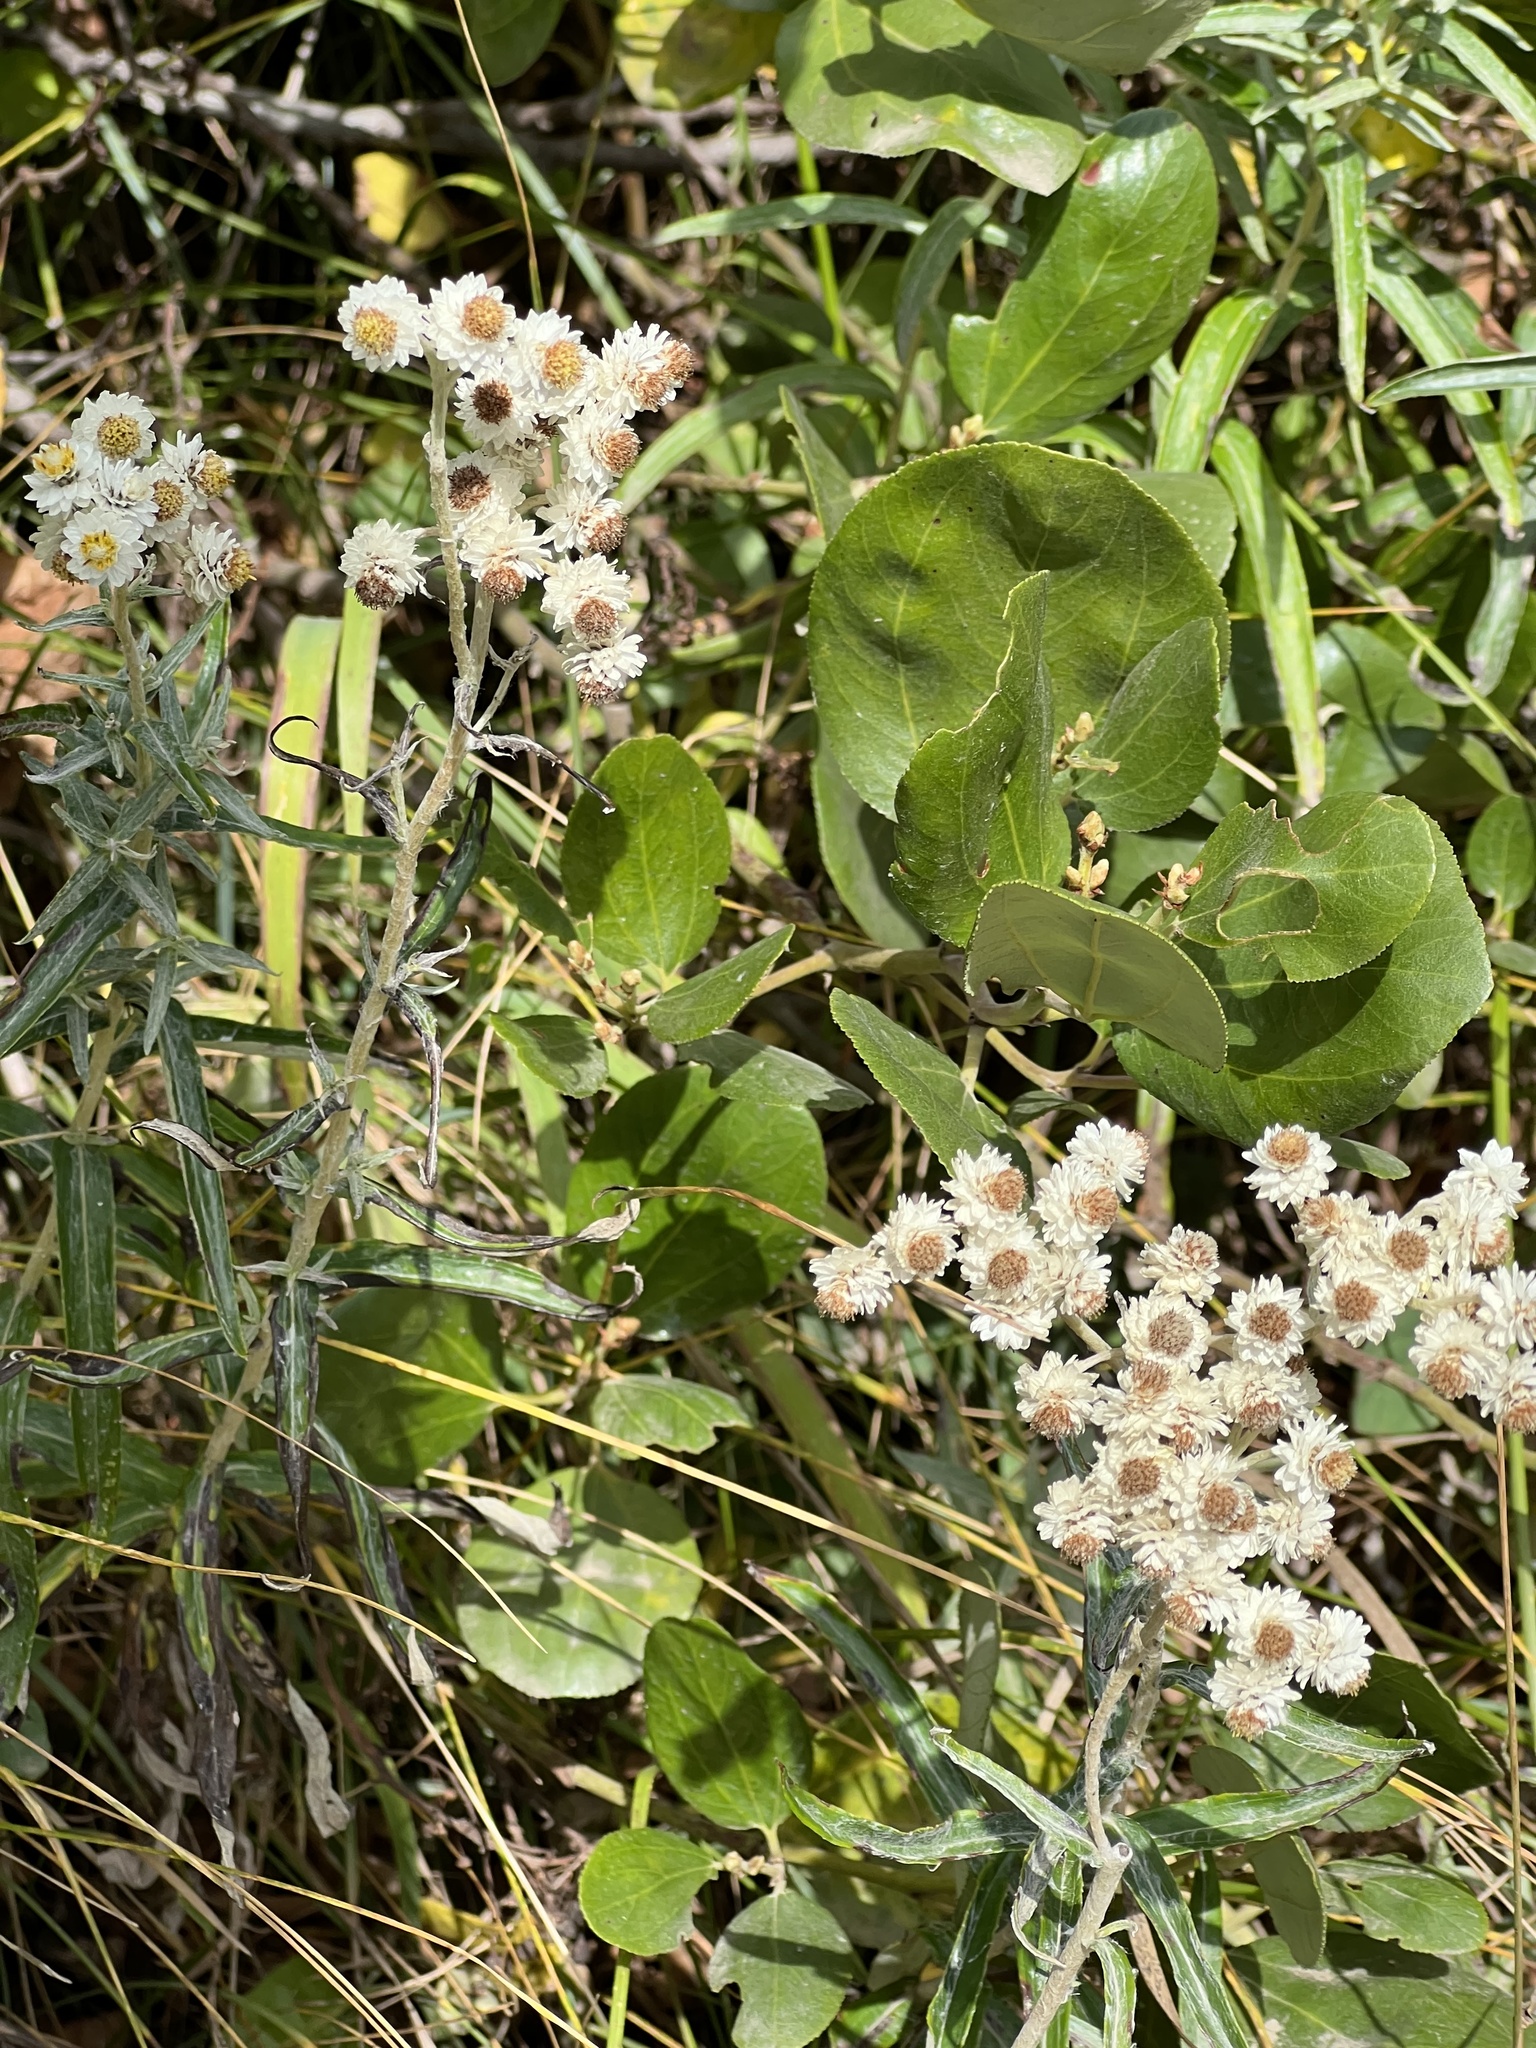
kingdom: Plantae
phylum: Tracheophyta
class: Magnoliopsida
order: Asterales
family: Asteraceae
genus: Anaphalis
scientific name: Anaphalis margaritacea
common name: Pearly everlasting
